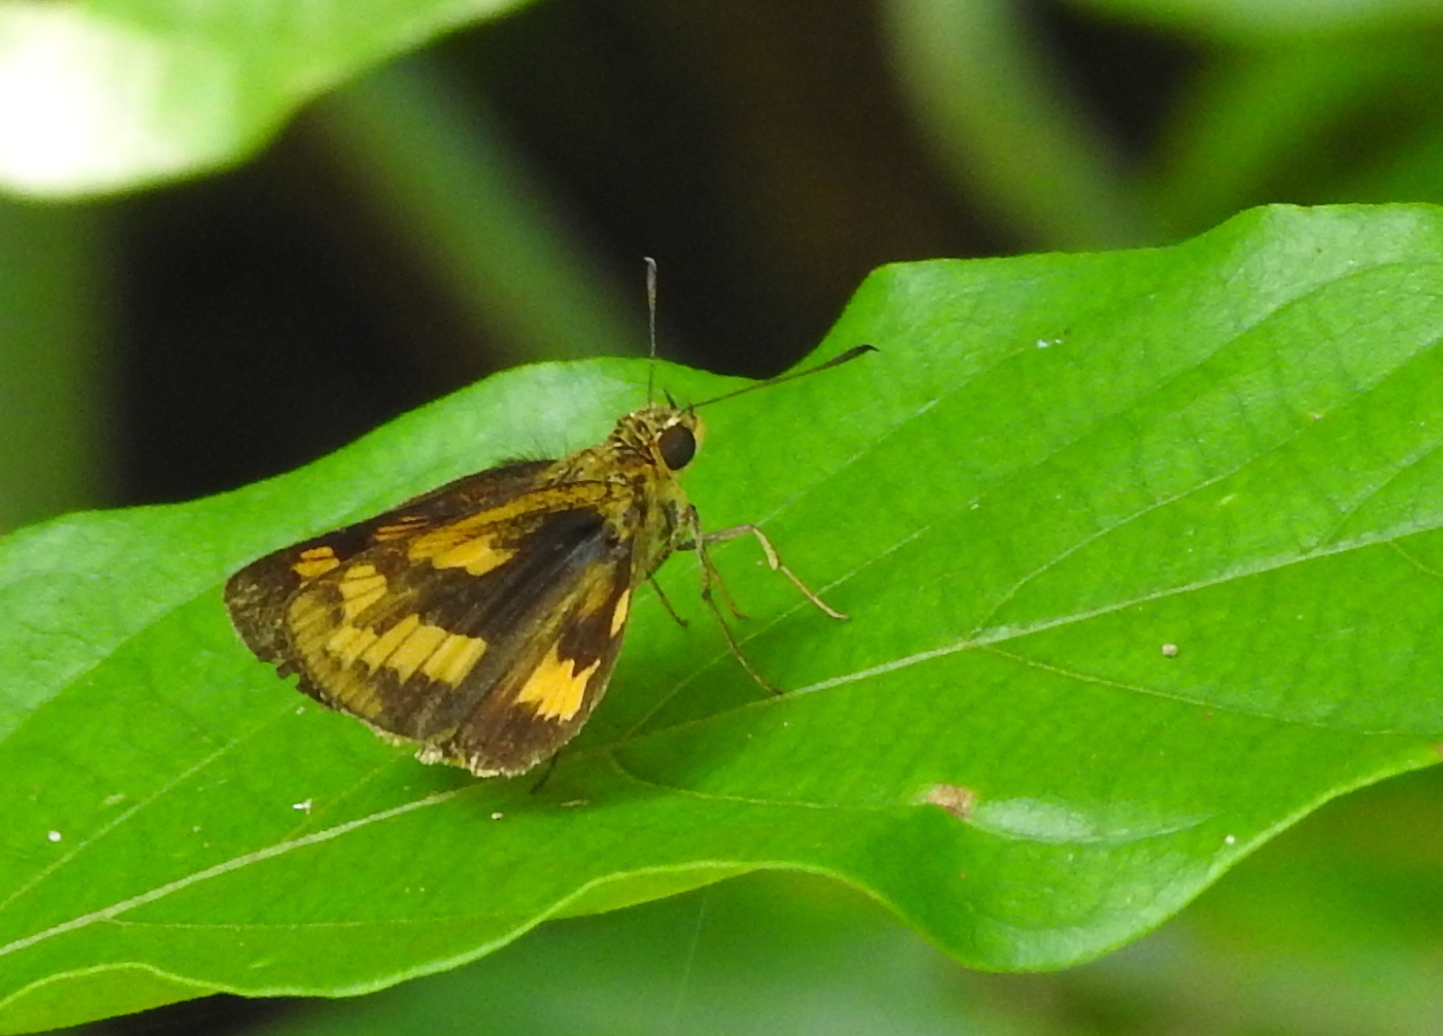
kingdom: Animalia
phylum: Arthropoda
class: Insecta
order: Lepidoptera
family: Hesperiidae
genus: Potanthus
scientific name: Potanthus confucius
